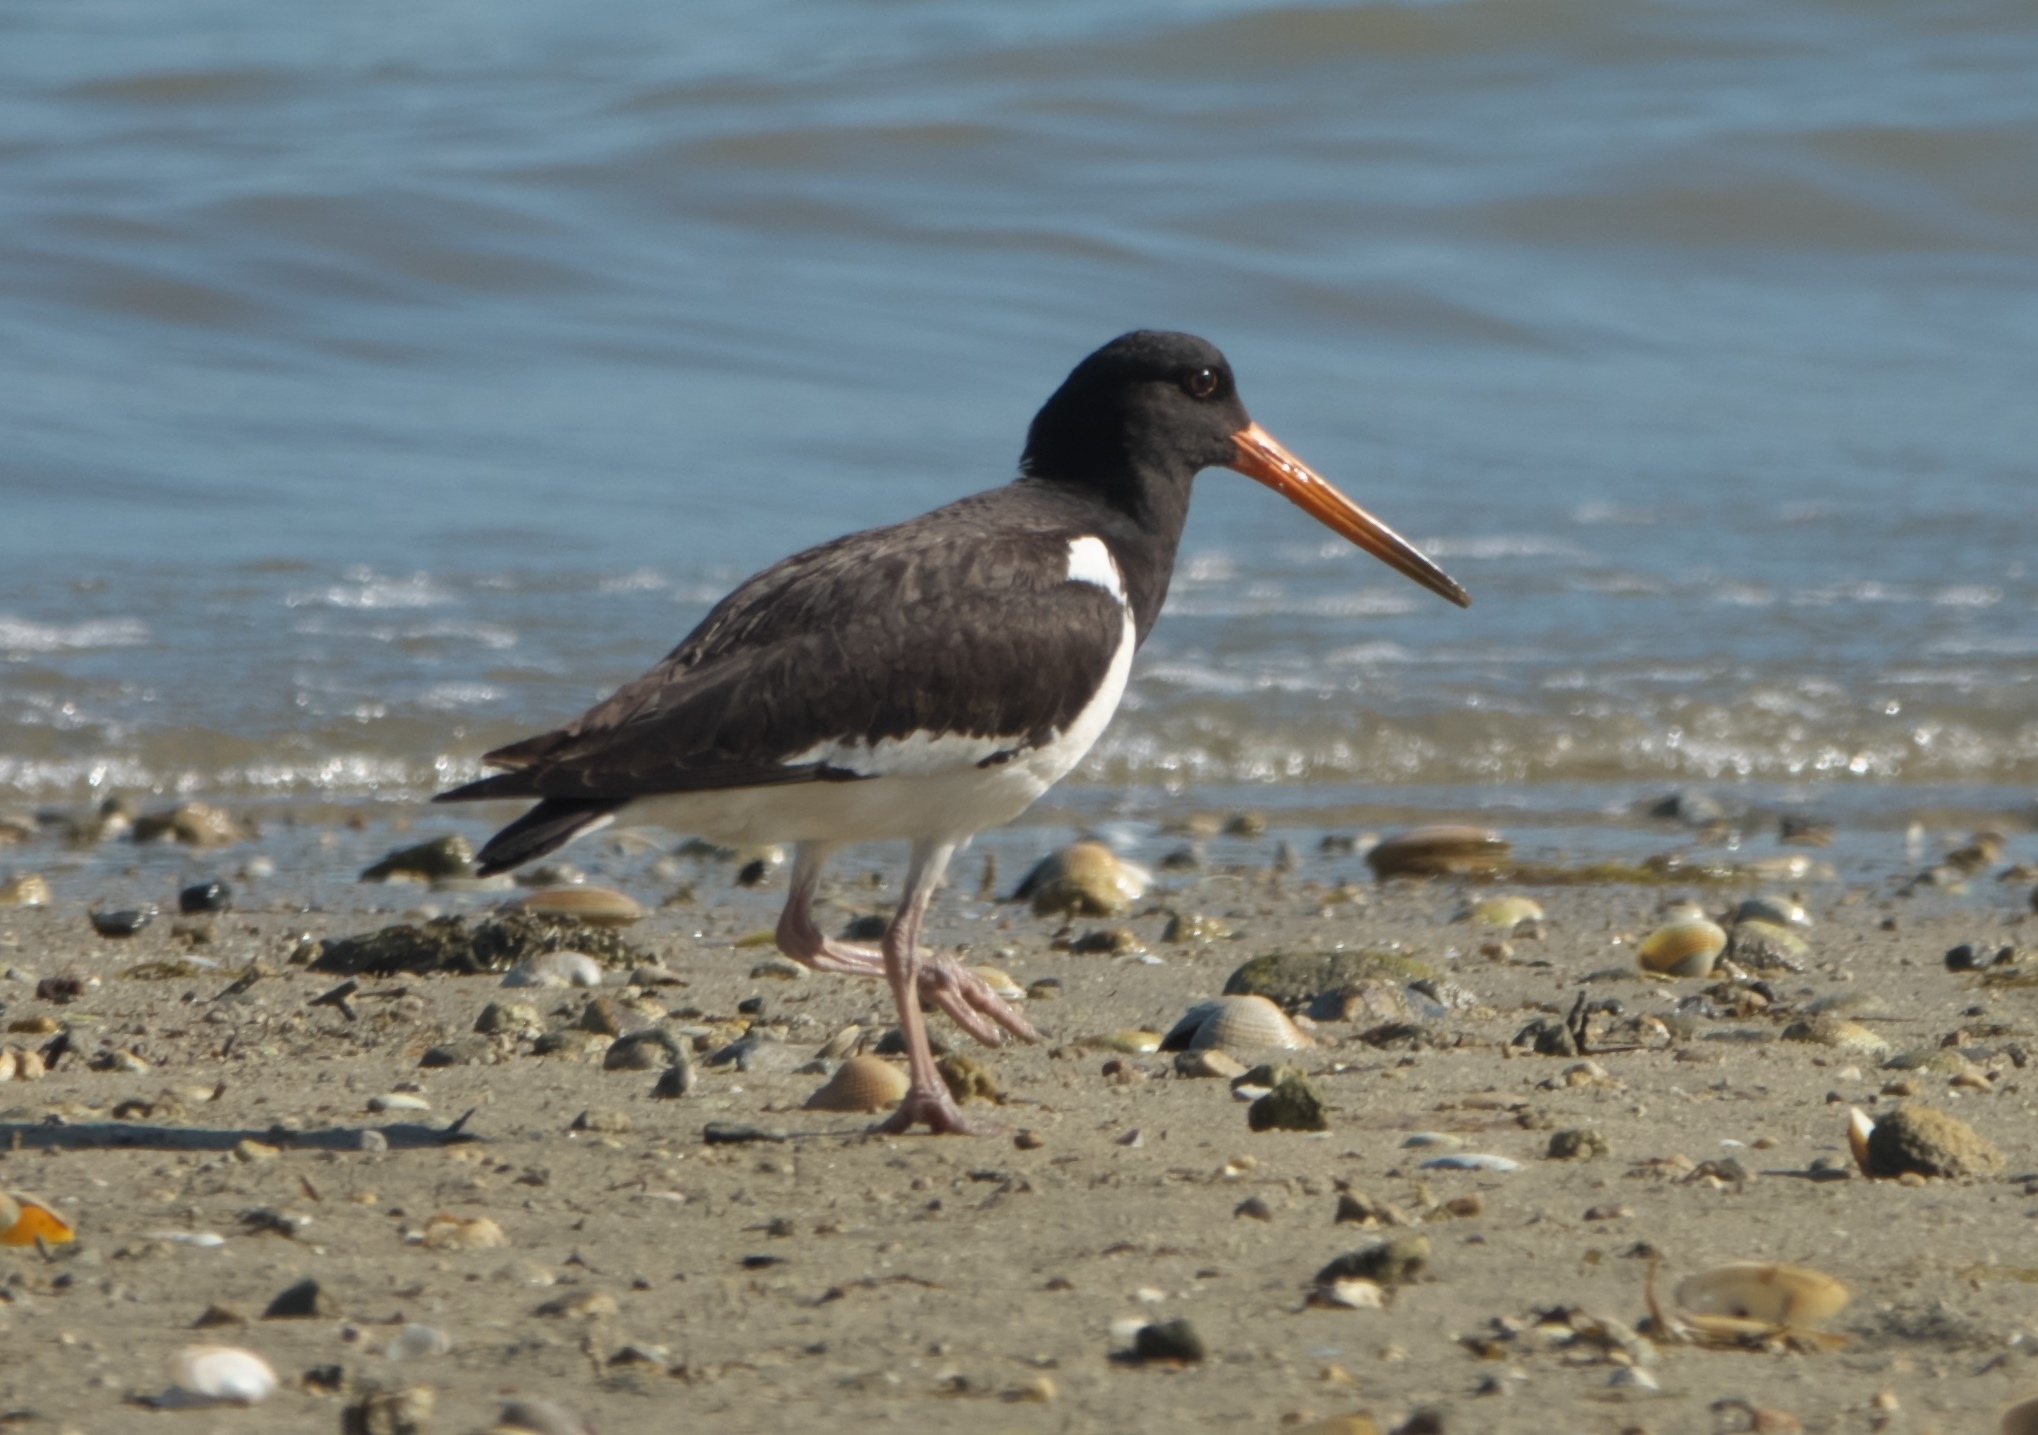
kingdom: Animalia
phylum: Chordata
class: Aves
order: Charadriiformes
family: Haematopodidae
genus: Haematopus
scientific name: Haematopus finschi
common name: South island oystercatcher
